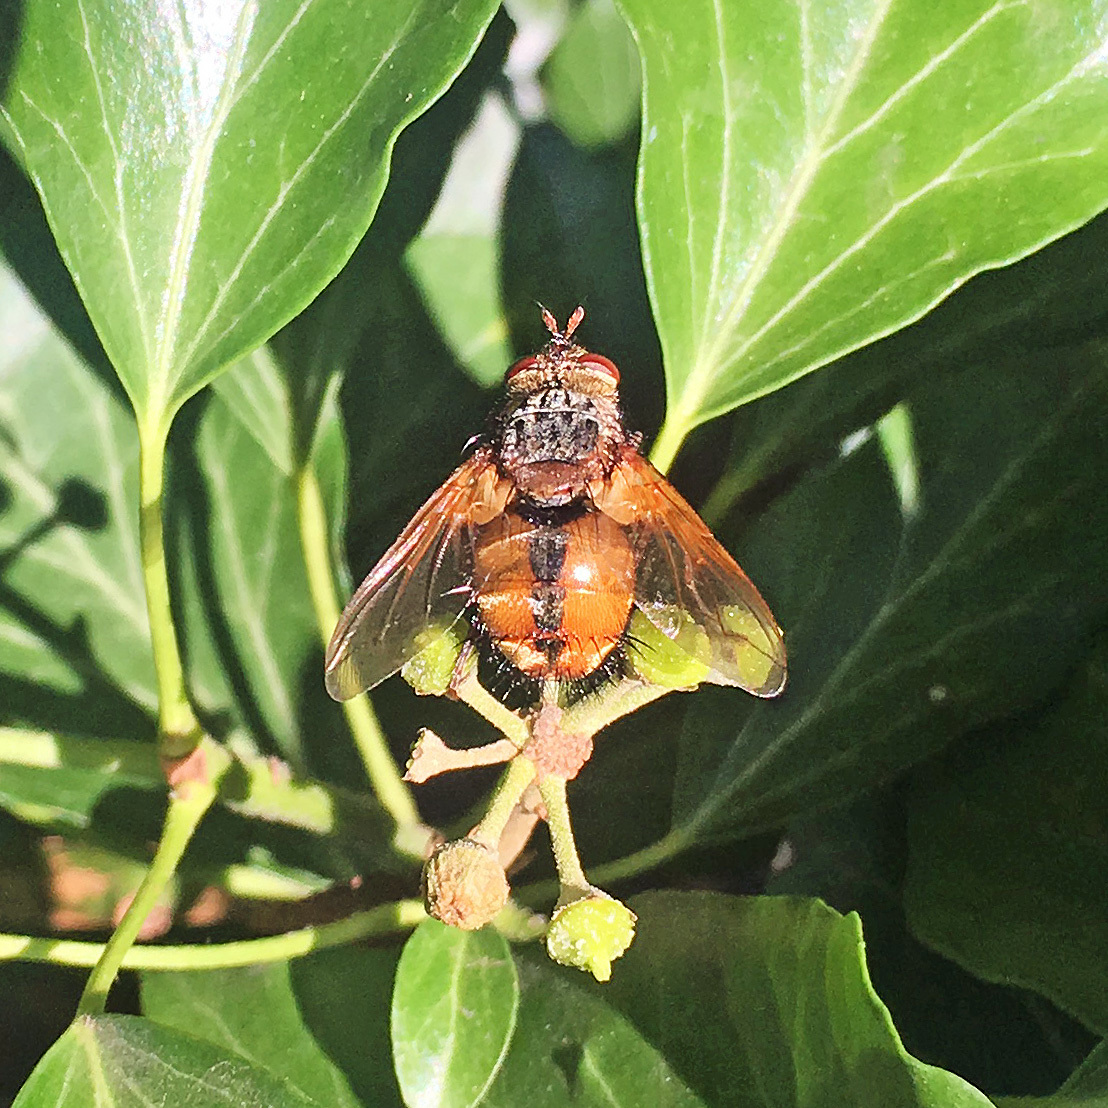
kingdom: Animalia
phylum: Arthropoda
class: Insecta
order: Diptera
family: Tachinidae
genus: Tachina
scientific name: Tachina fera
